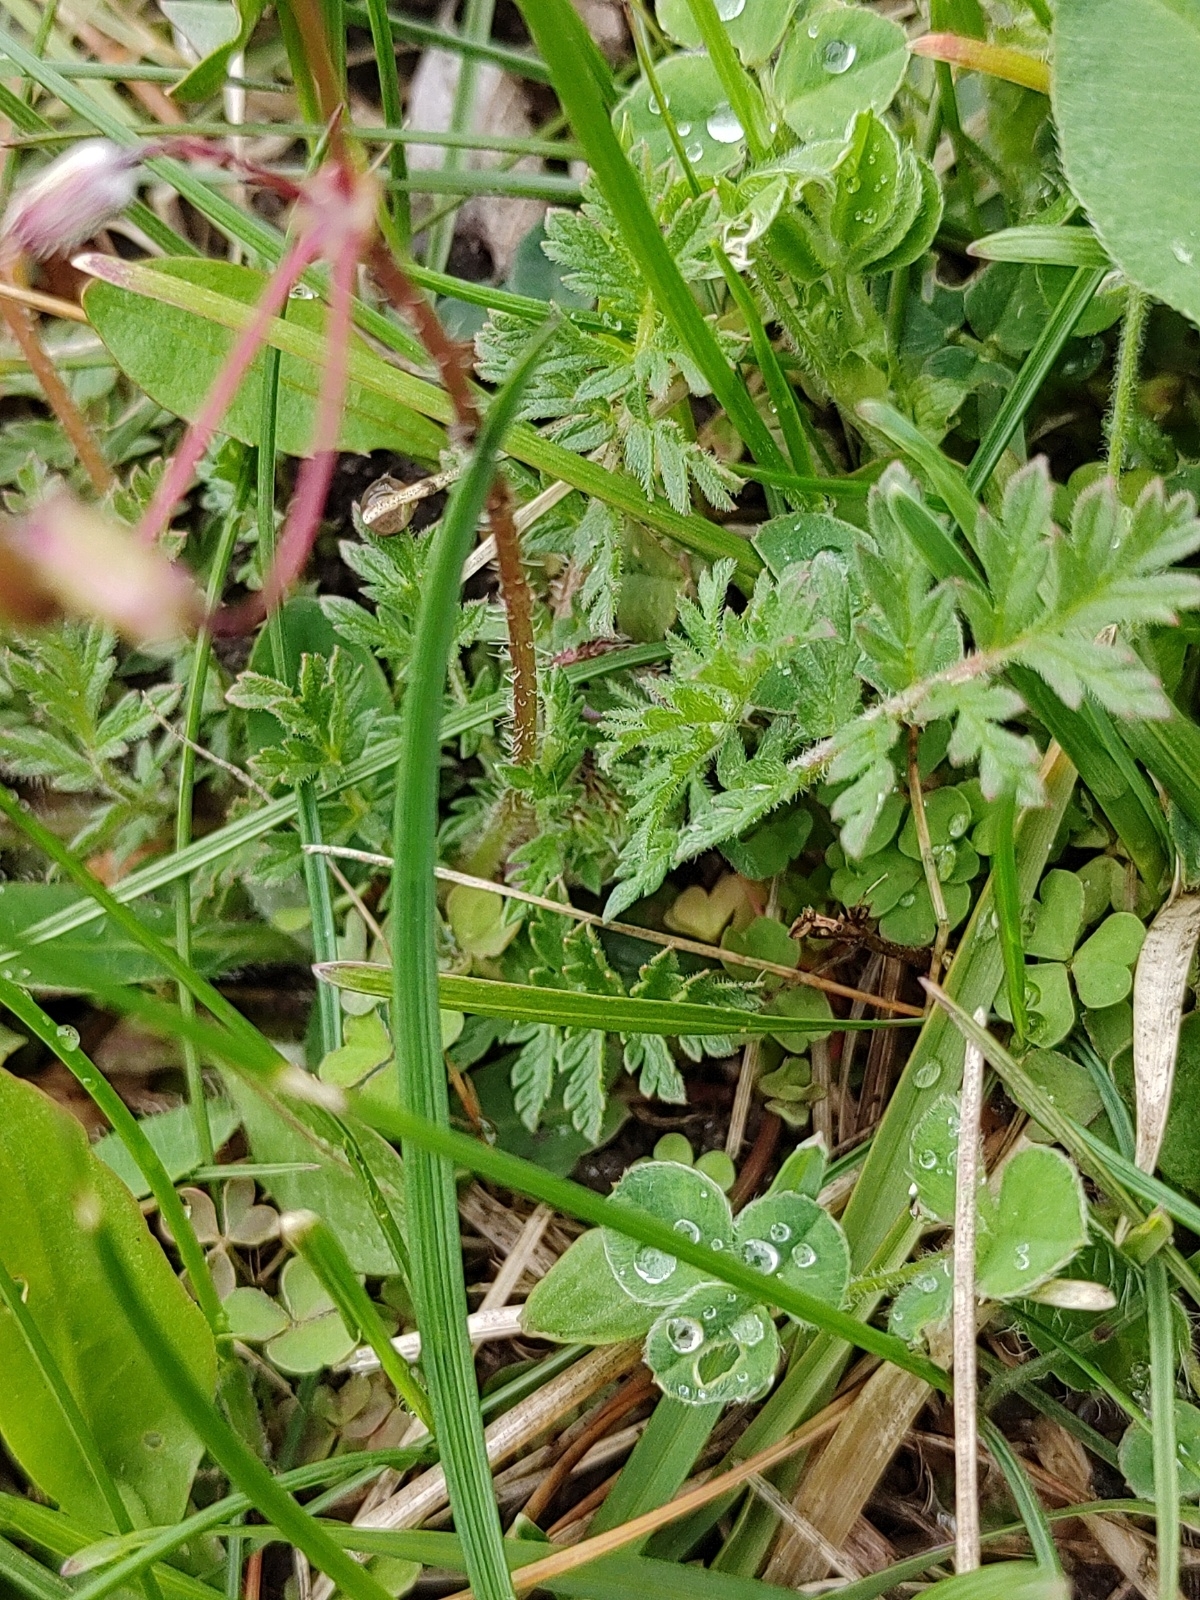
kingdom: Plantae
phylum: Tracheophyta
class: Magnoliopsida
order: Geraniales
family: Geraniaceae
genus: Erodium
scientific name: Erodium cicutarium
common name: Common stork's-bill
